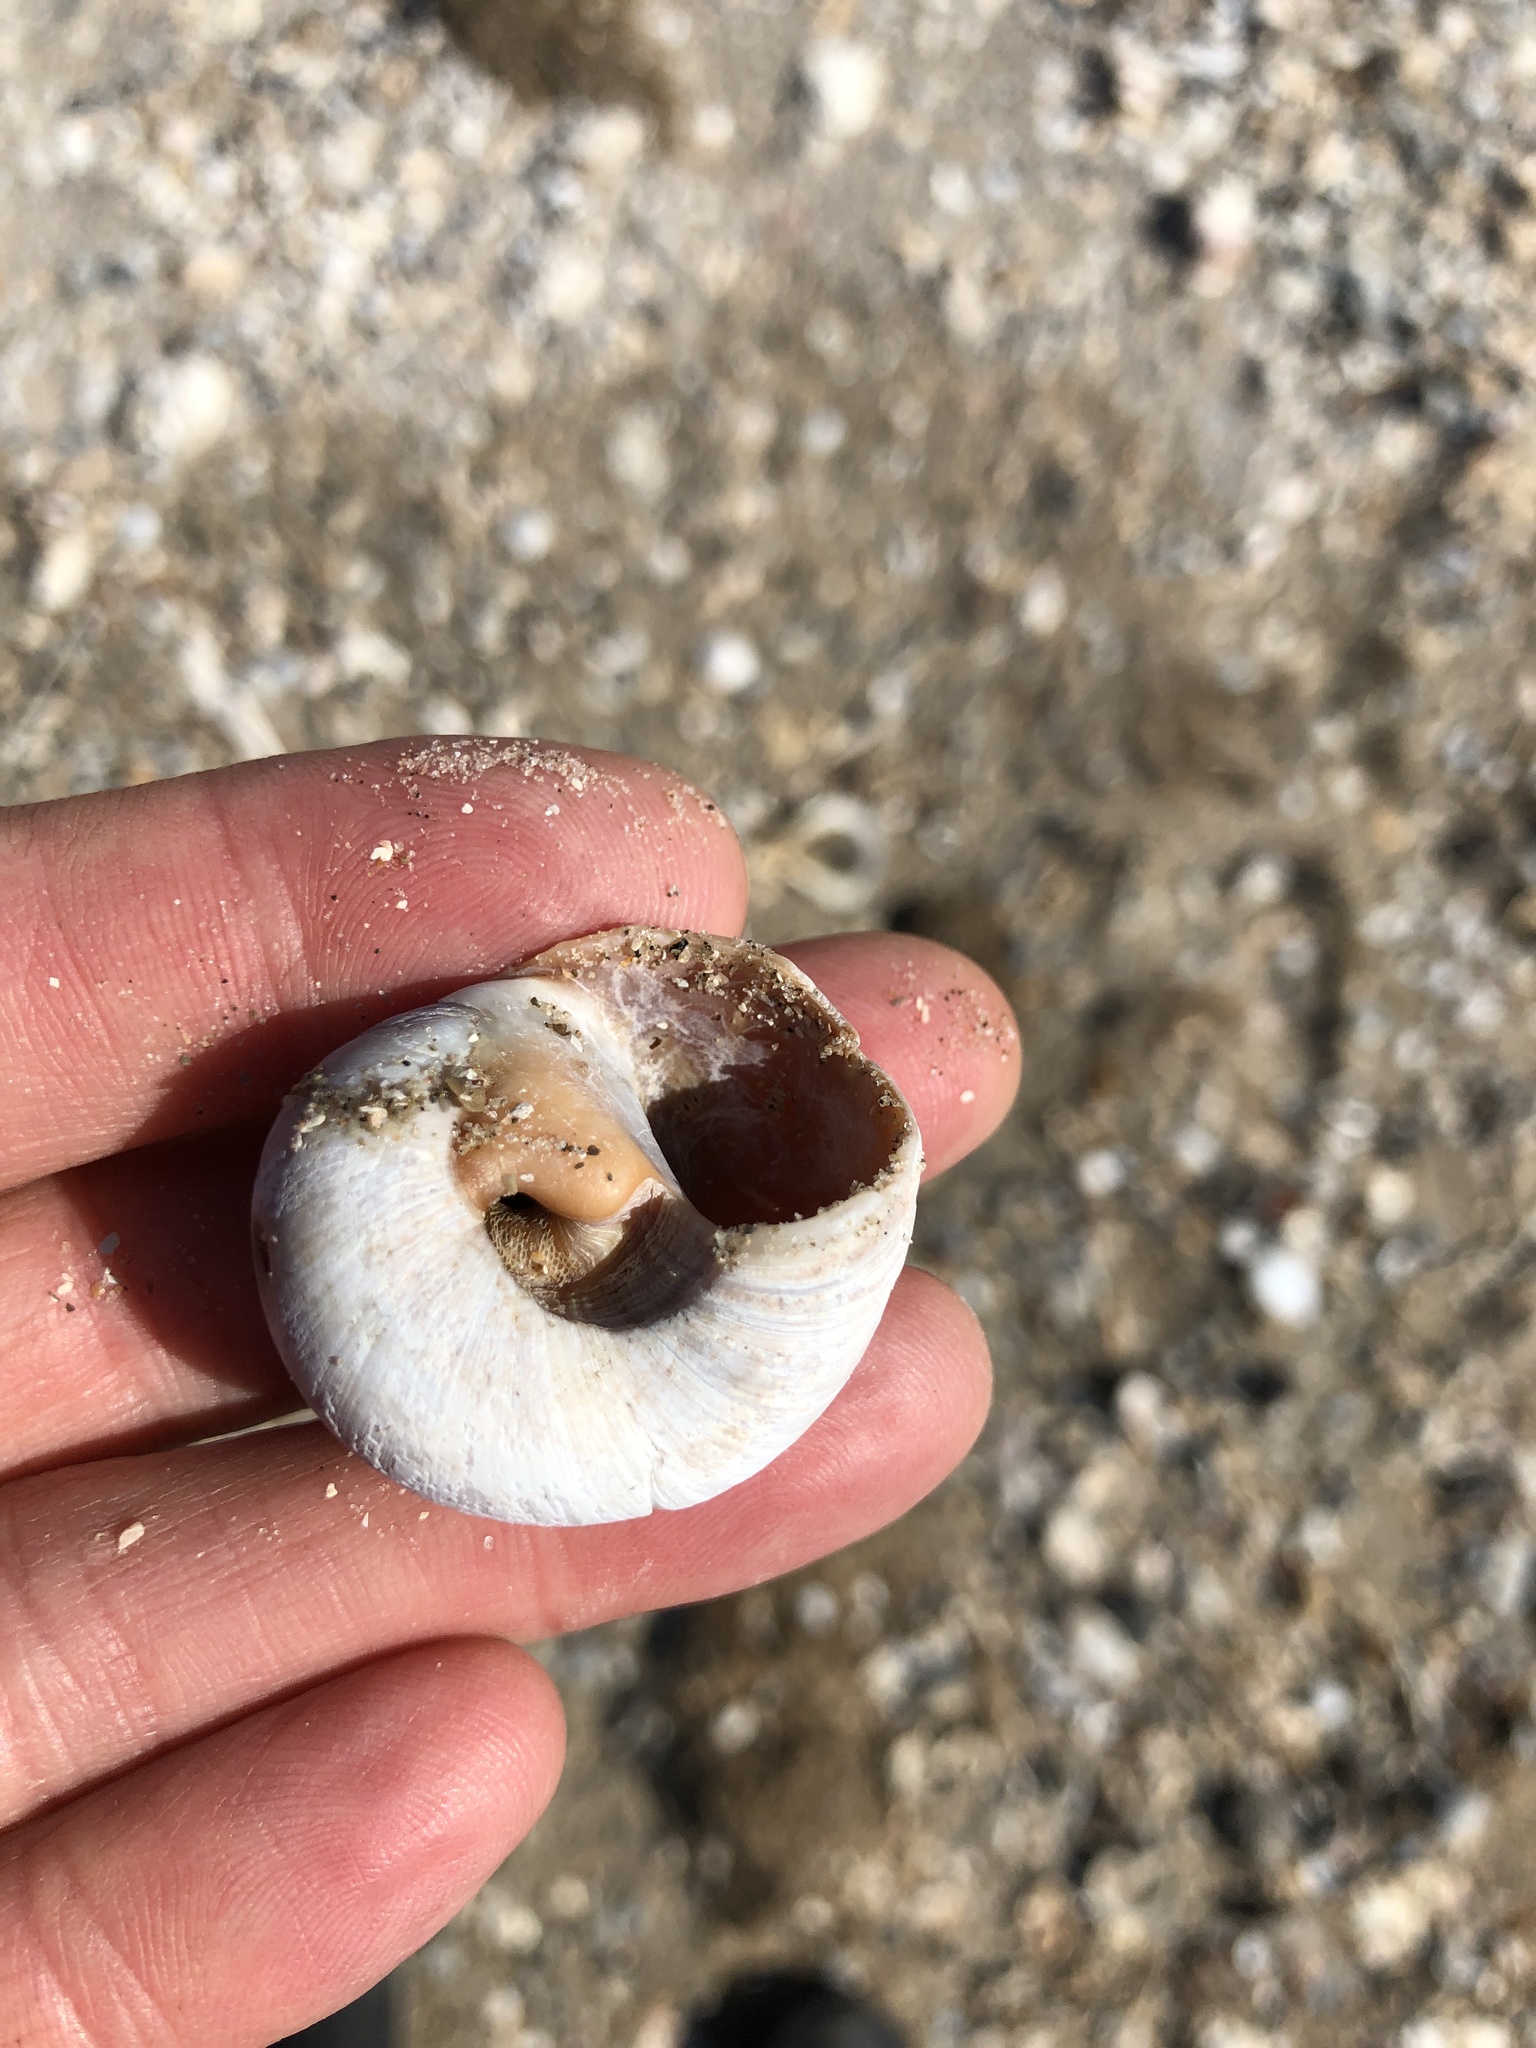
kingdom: Animalia
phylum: Mollusca
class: Gastropoda
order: Littorinimorpha
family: Naticidae
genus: Neverita
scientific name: Neverita delessertiana
